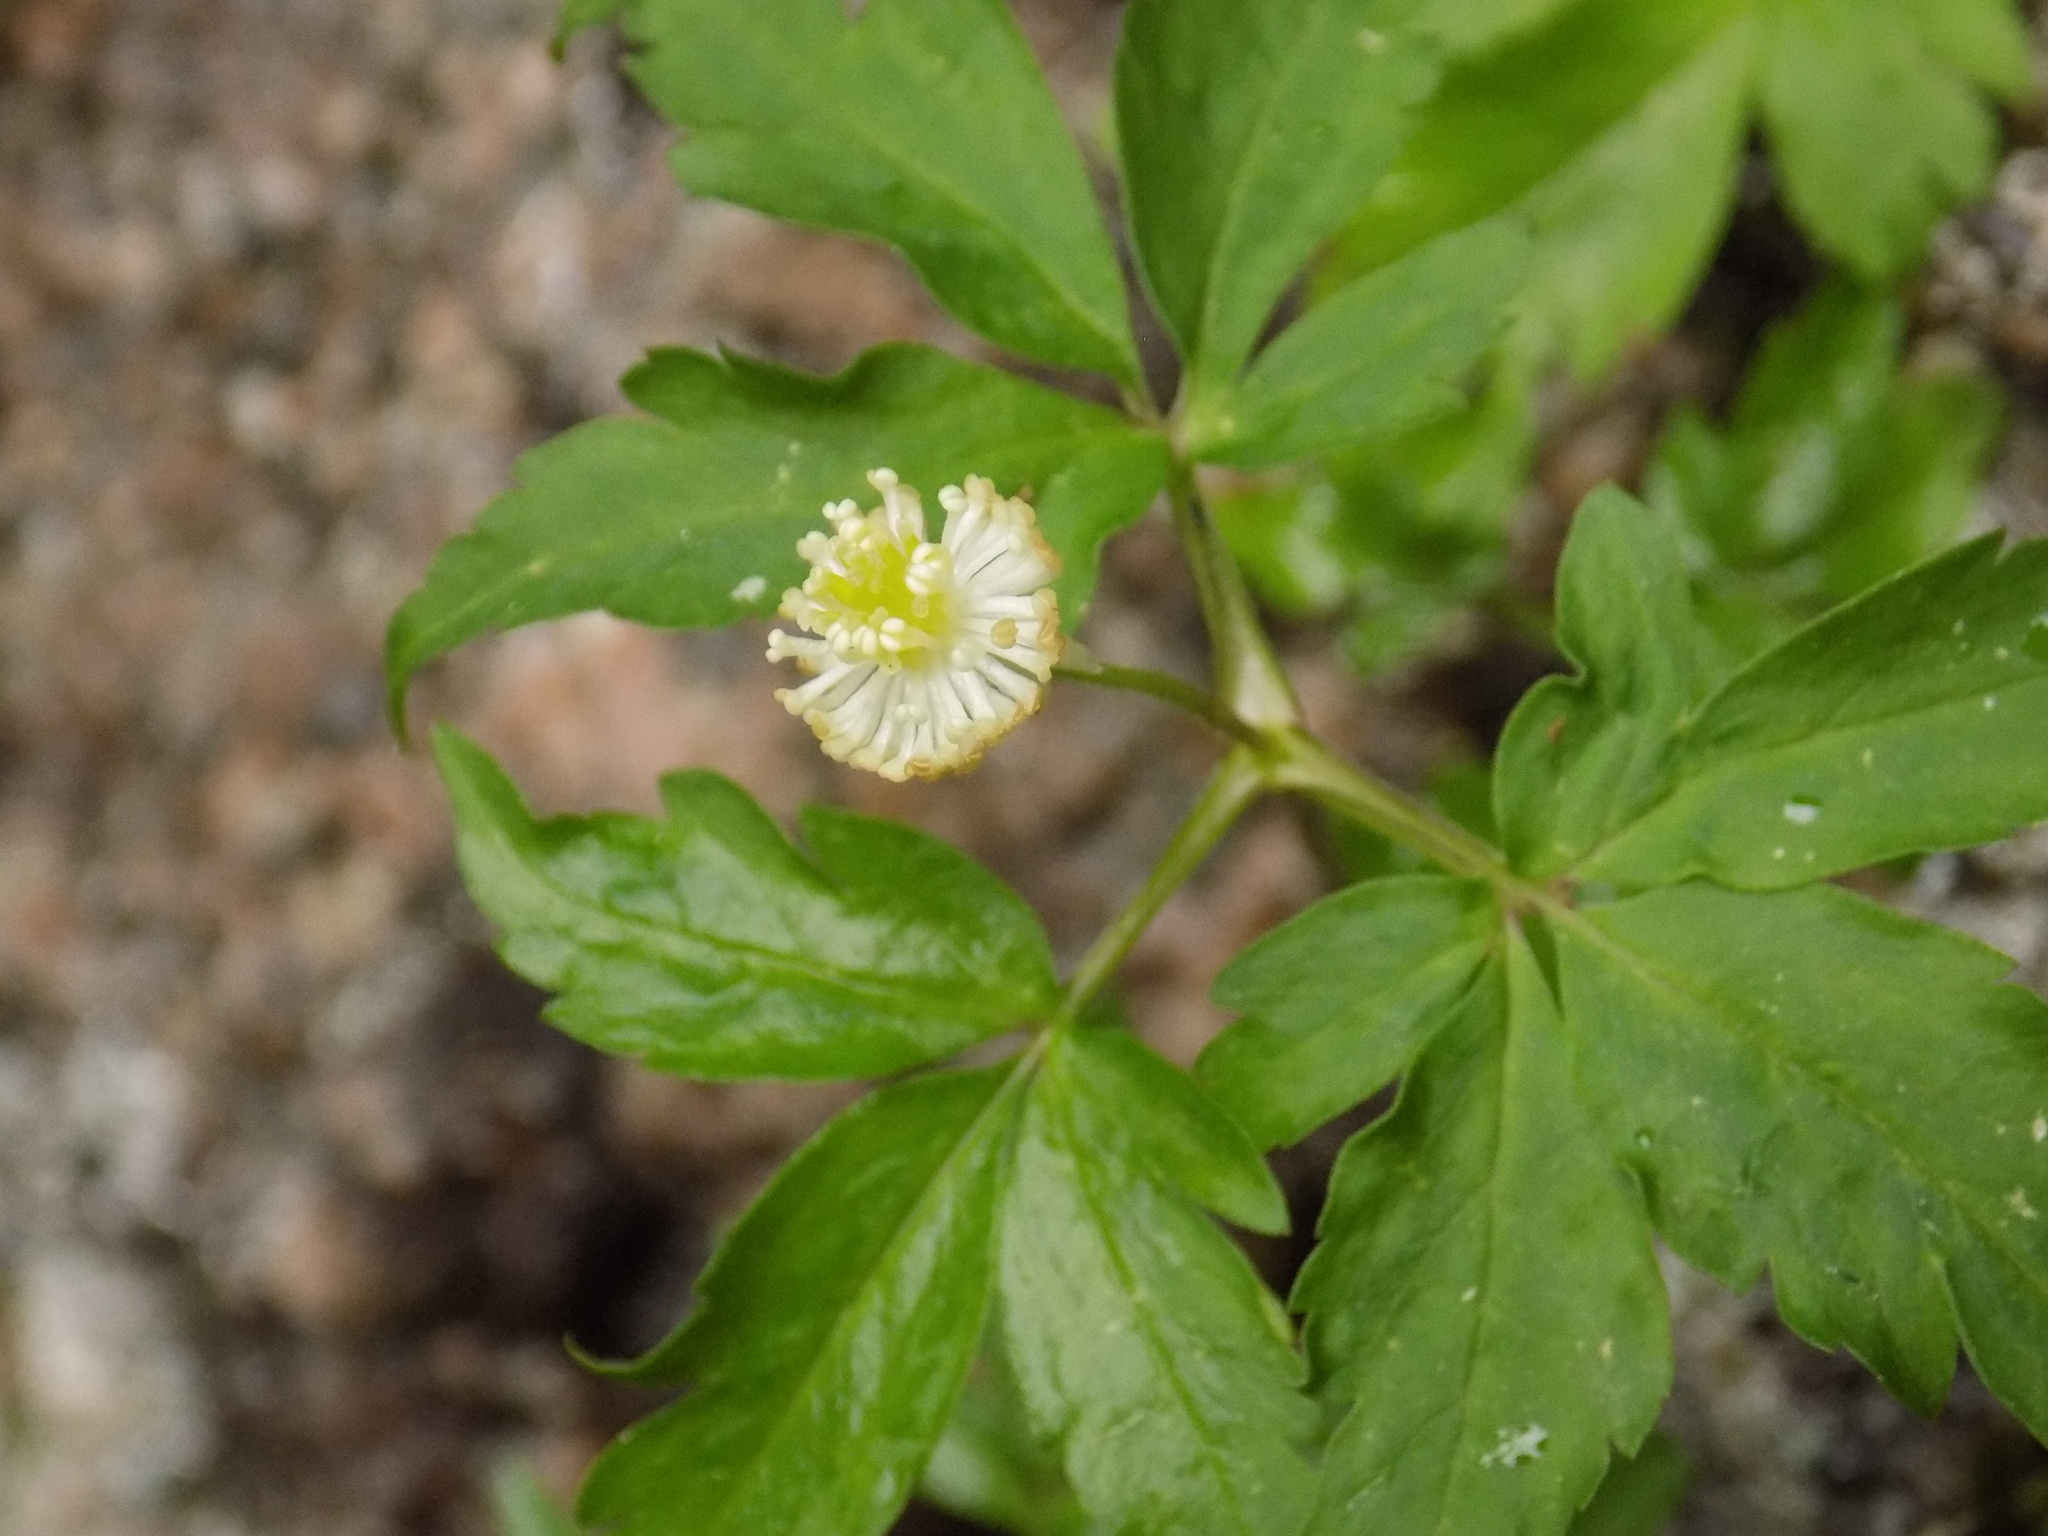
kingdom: Plantae
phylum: Tracheophyta
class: Magnoliopsida
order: Ranunculales
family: Ranunculaceae
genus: Anemone
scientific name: Anemone reflexa
